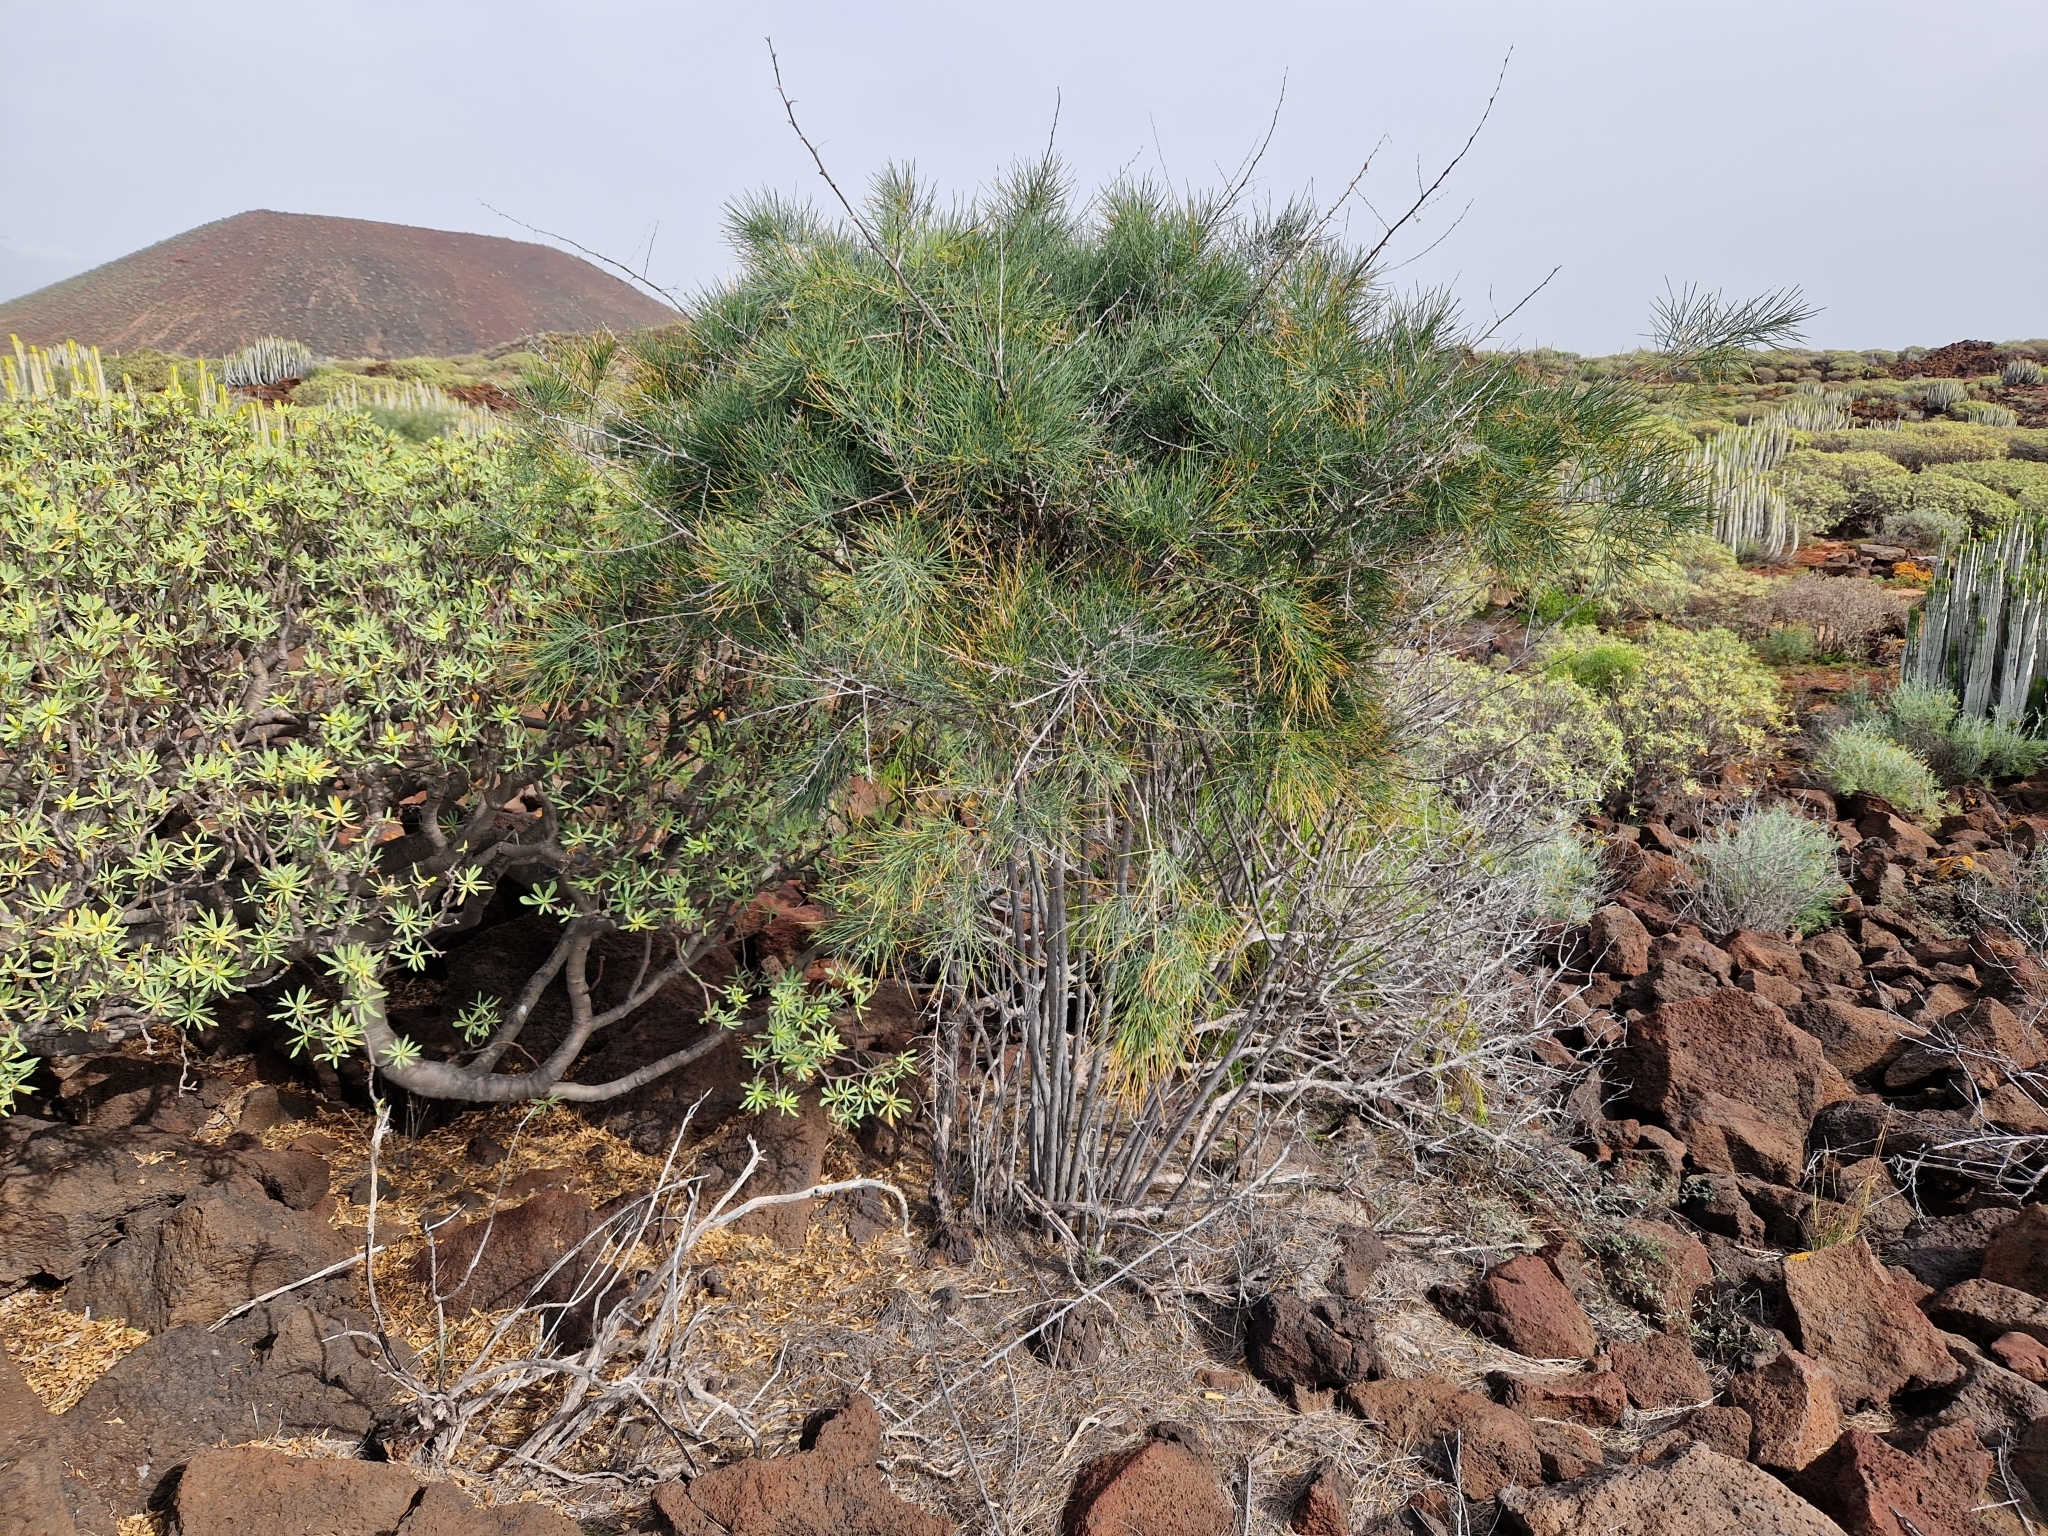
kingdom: Plantae
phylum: Tracheophyta
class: Liliopsida
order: Asparagales
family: Asparagaceae
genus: Asparagus
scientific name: Asparagus arborescens
